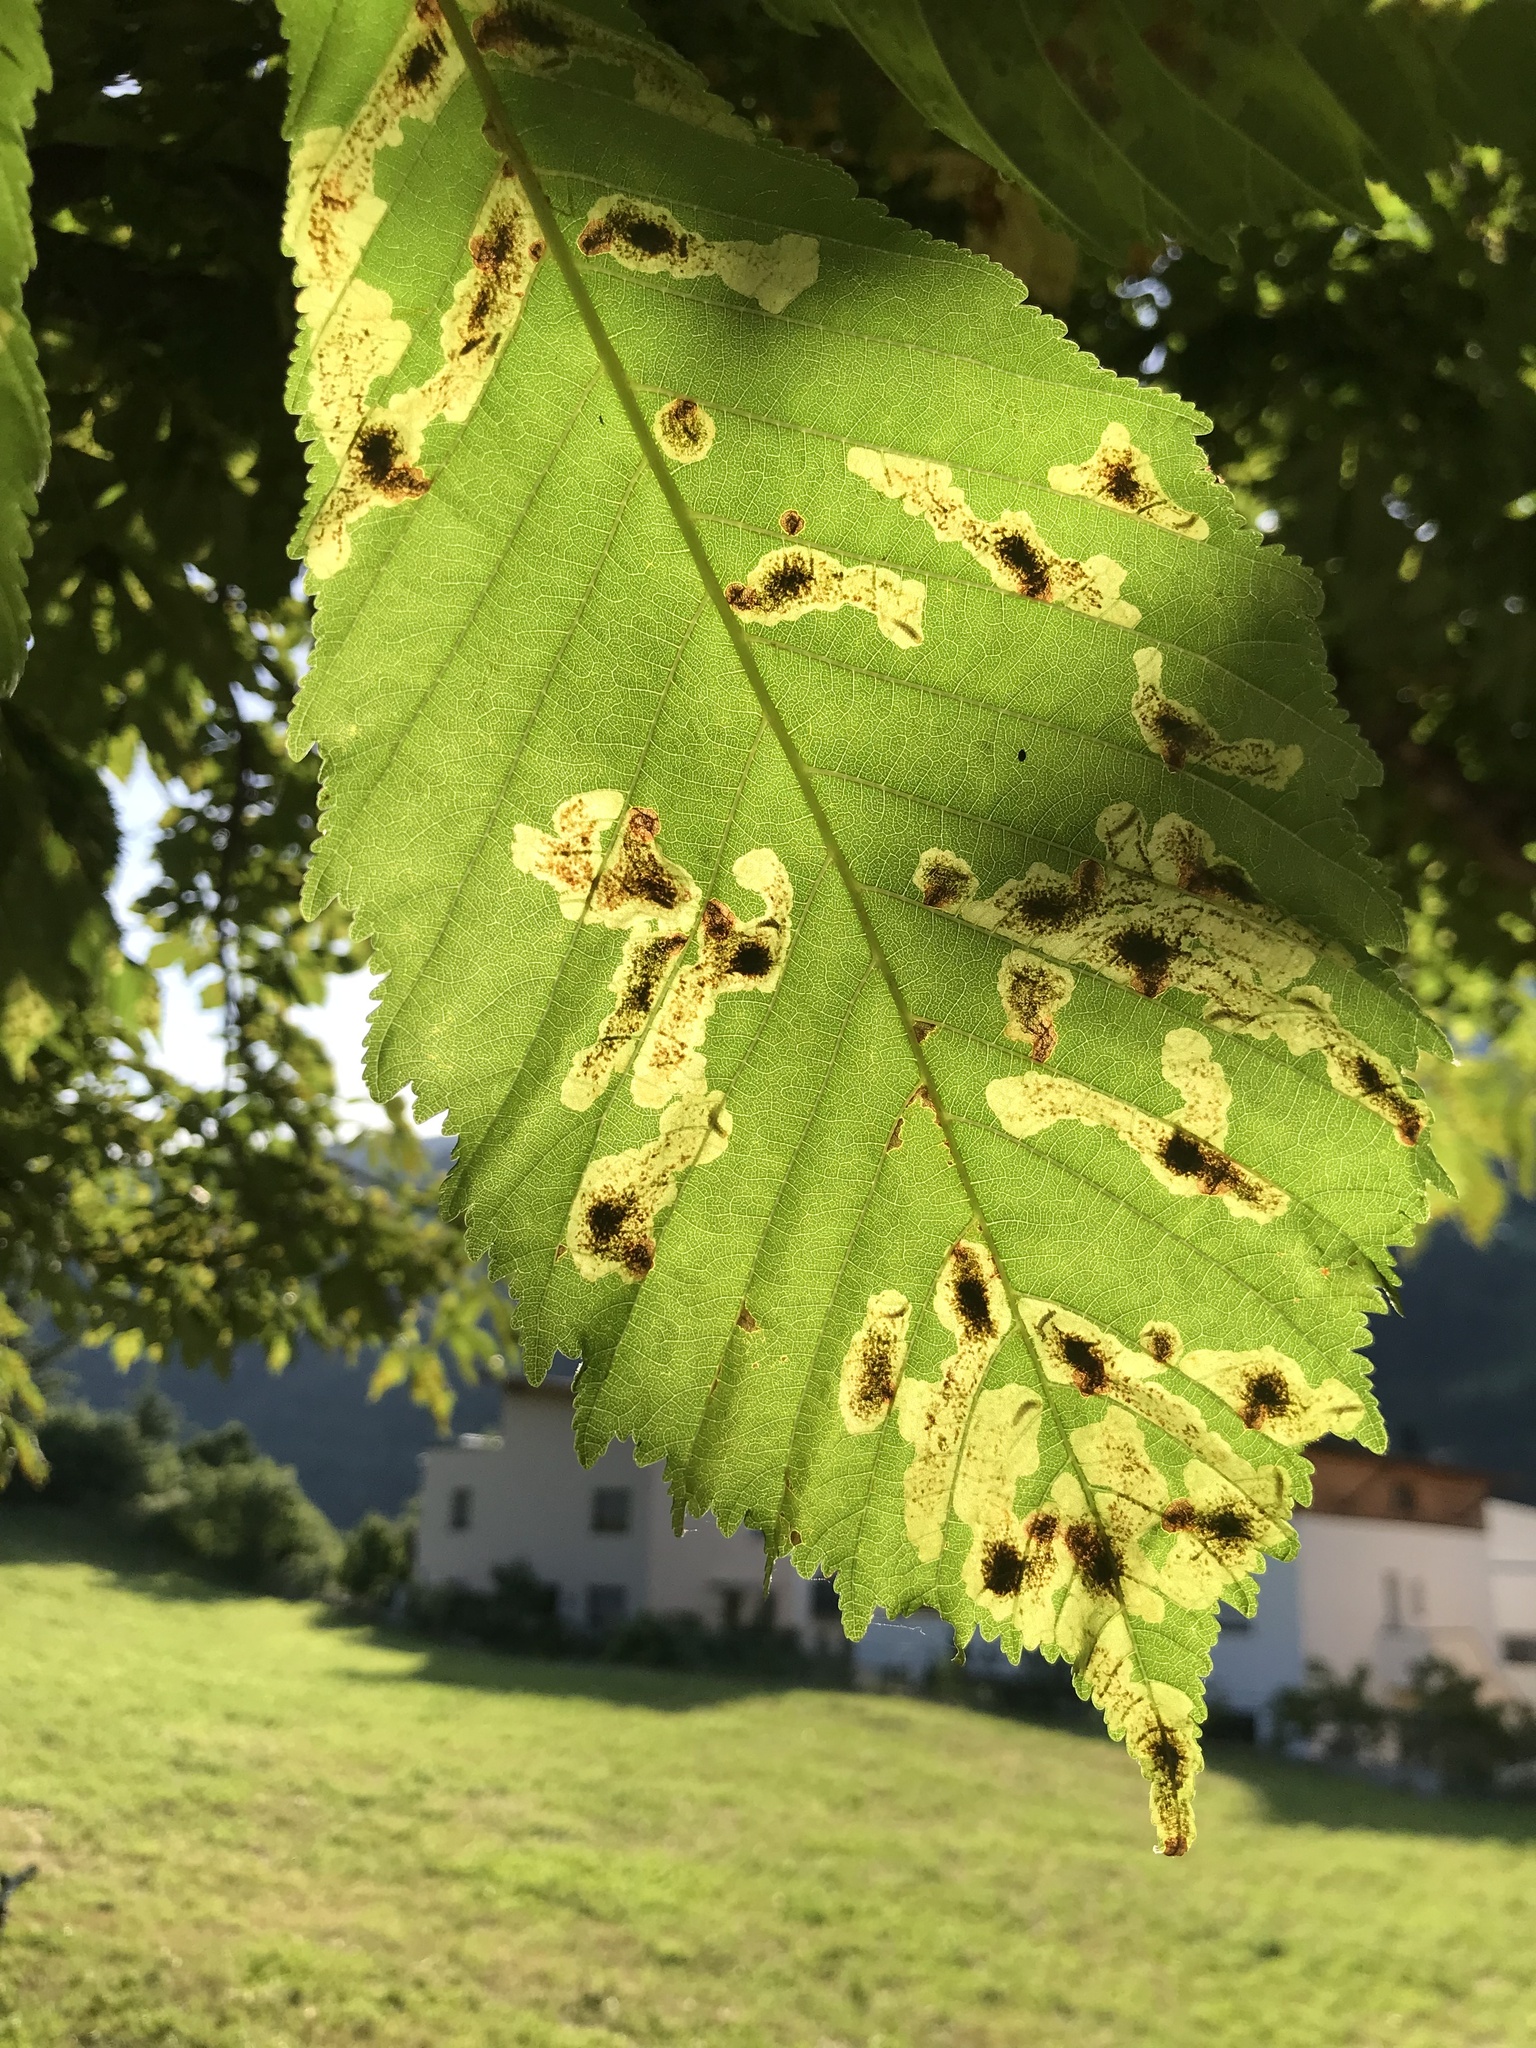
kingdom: Animalia
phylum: Arthropoda
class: Insecta
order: Lepidoptera
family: Gracillariidae
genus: Cameraria
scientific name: Cameraria ohridella
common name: Horse-chestnut leaf-miner
